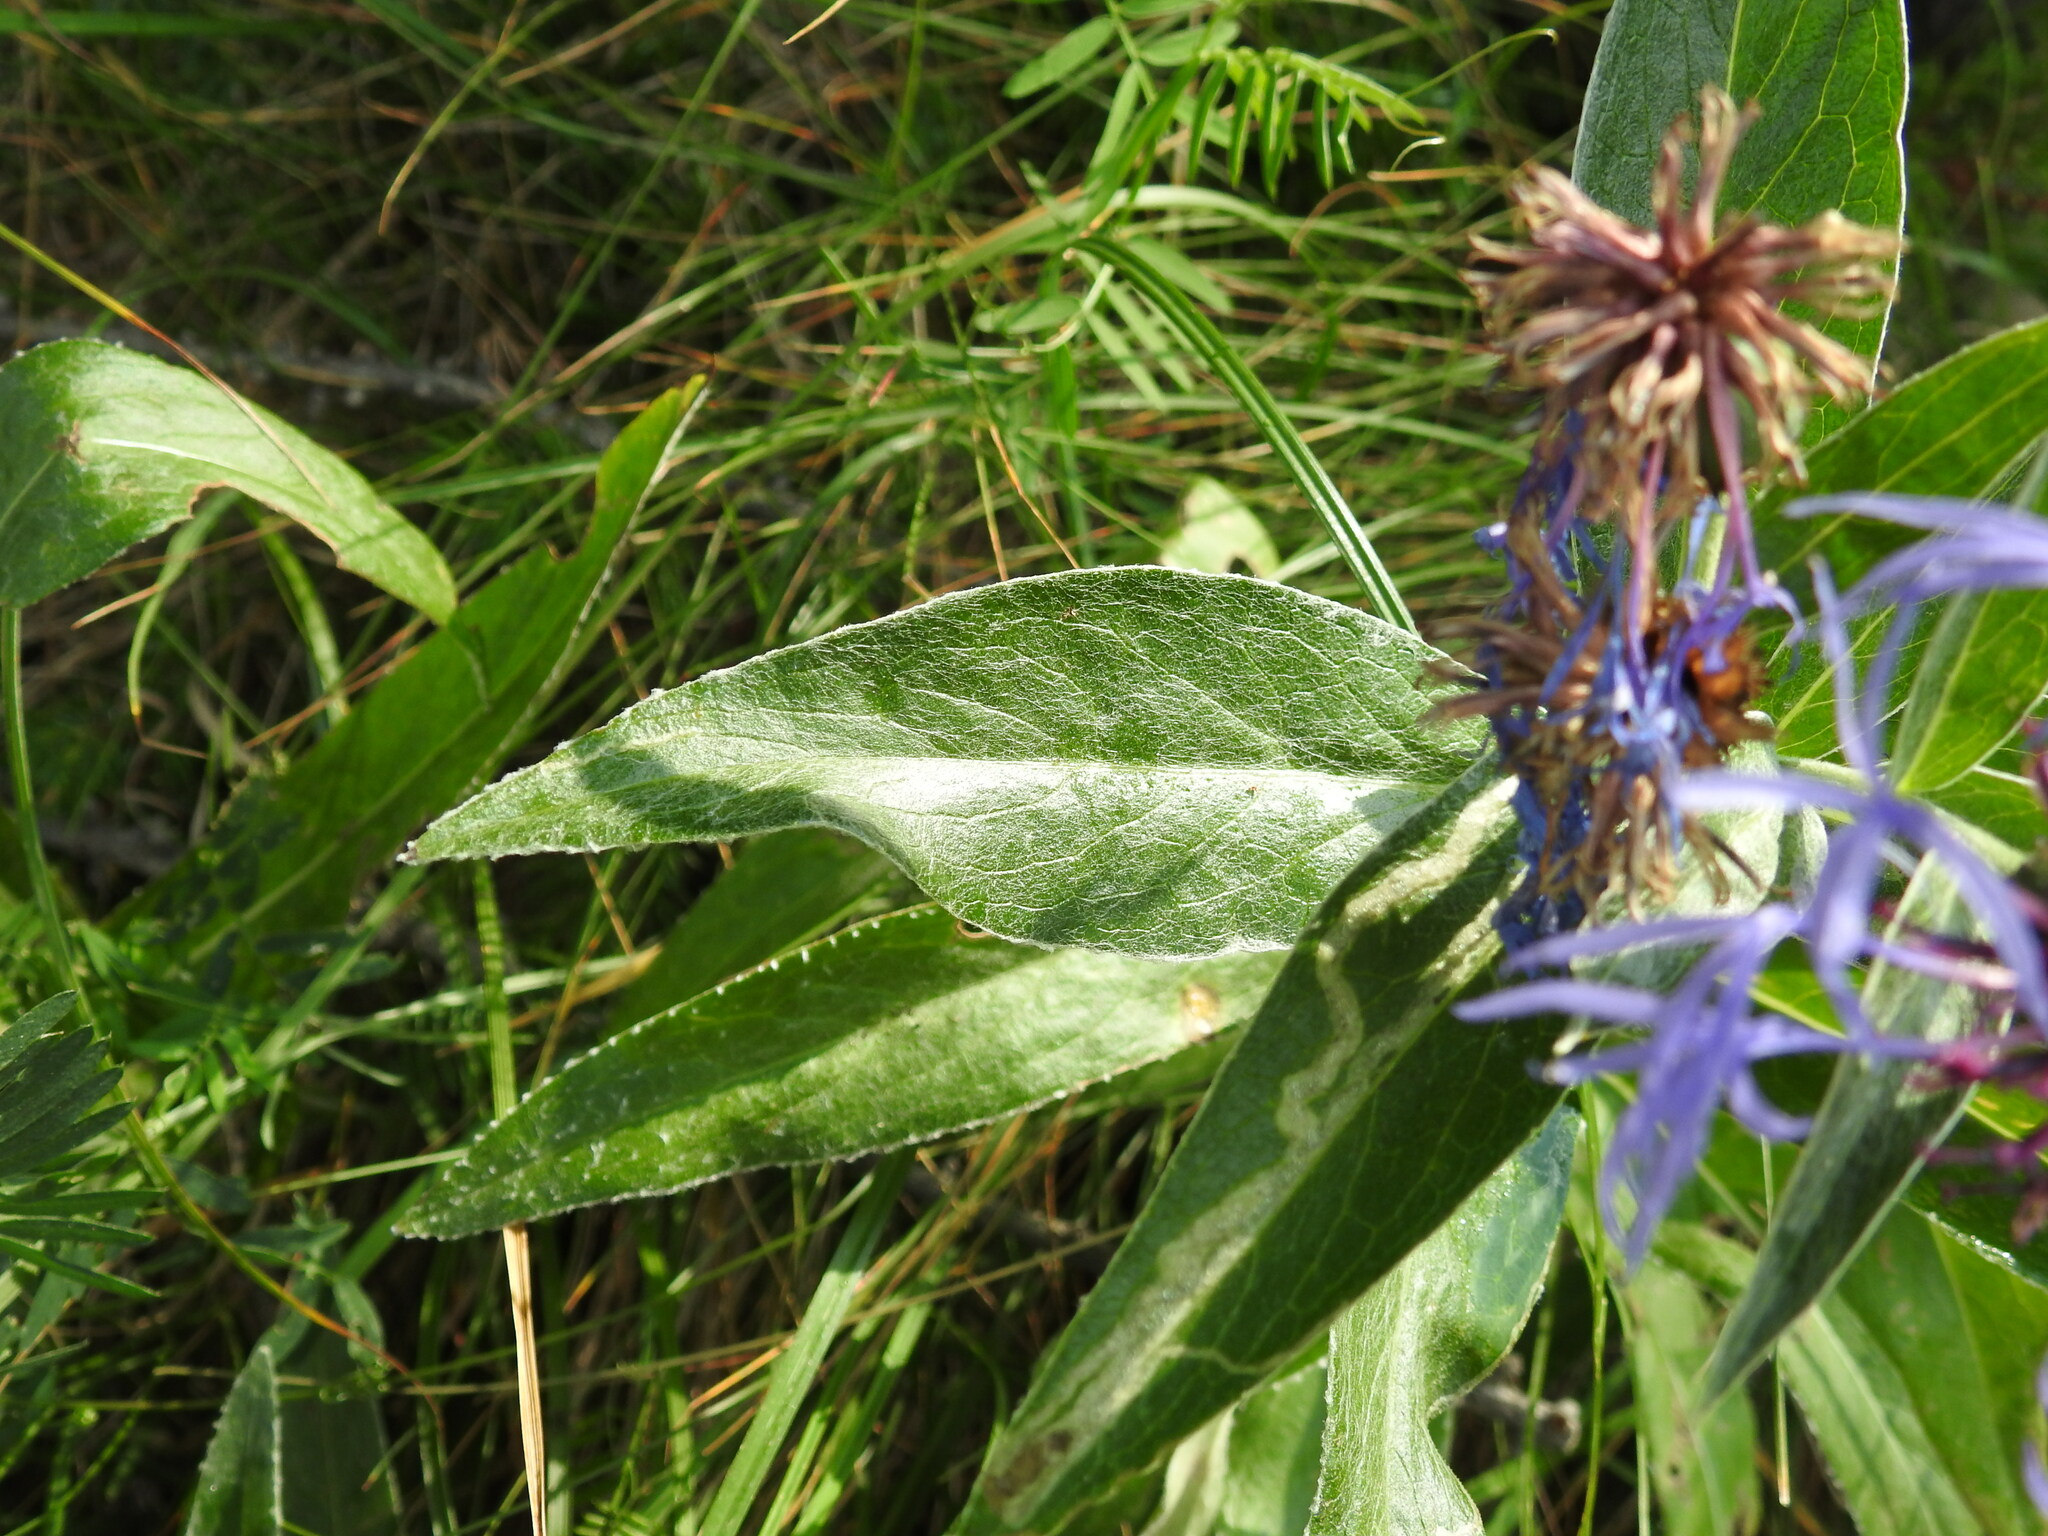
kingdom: Plantae
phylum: Tracheophyta
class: Magnoliopsida
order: Asterales
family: Asteraceae
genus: Centaurea
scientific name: Centaurea montana
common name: Perennial cornflower
